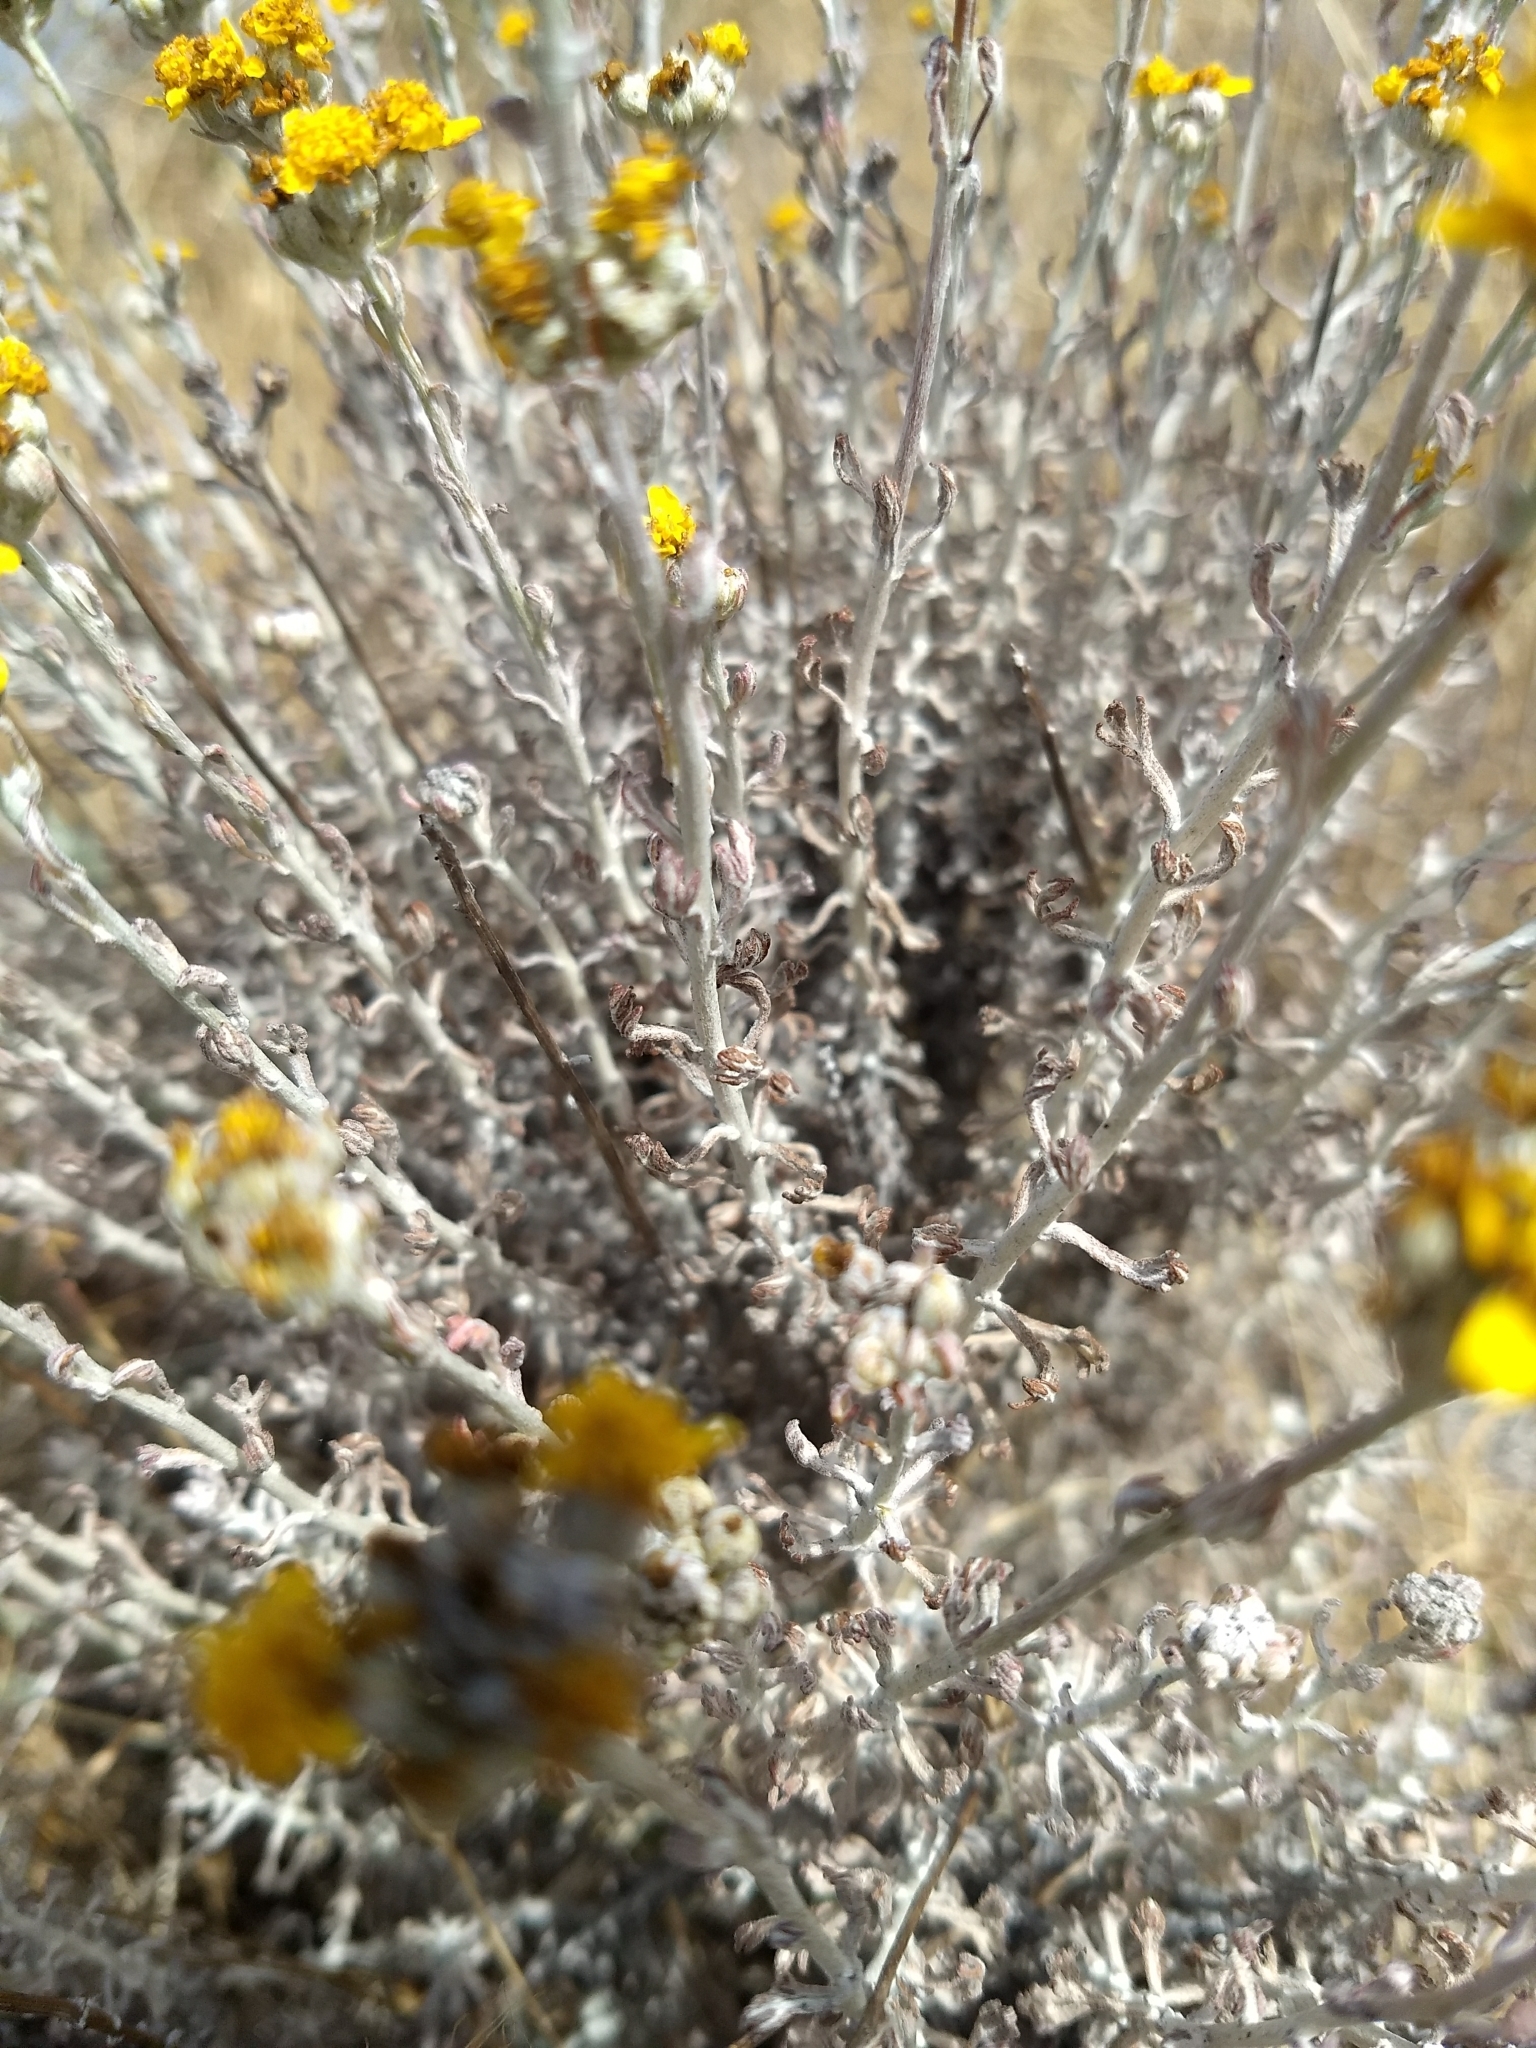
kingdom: Plantae
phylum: Tracheophyta
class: Magnoliopsida
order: Asterales
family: Asteraceae
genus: Eriophyllum
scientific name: Eriophyllum confertiflorum
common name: Golden-yarrow
